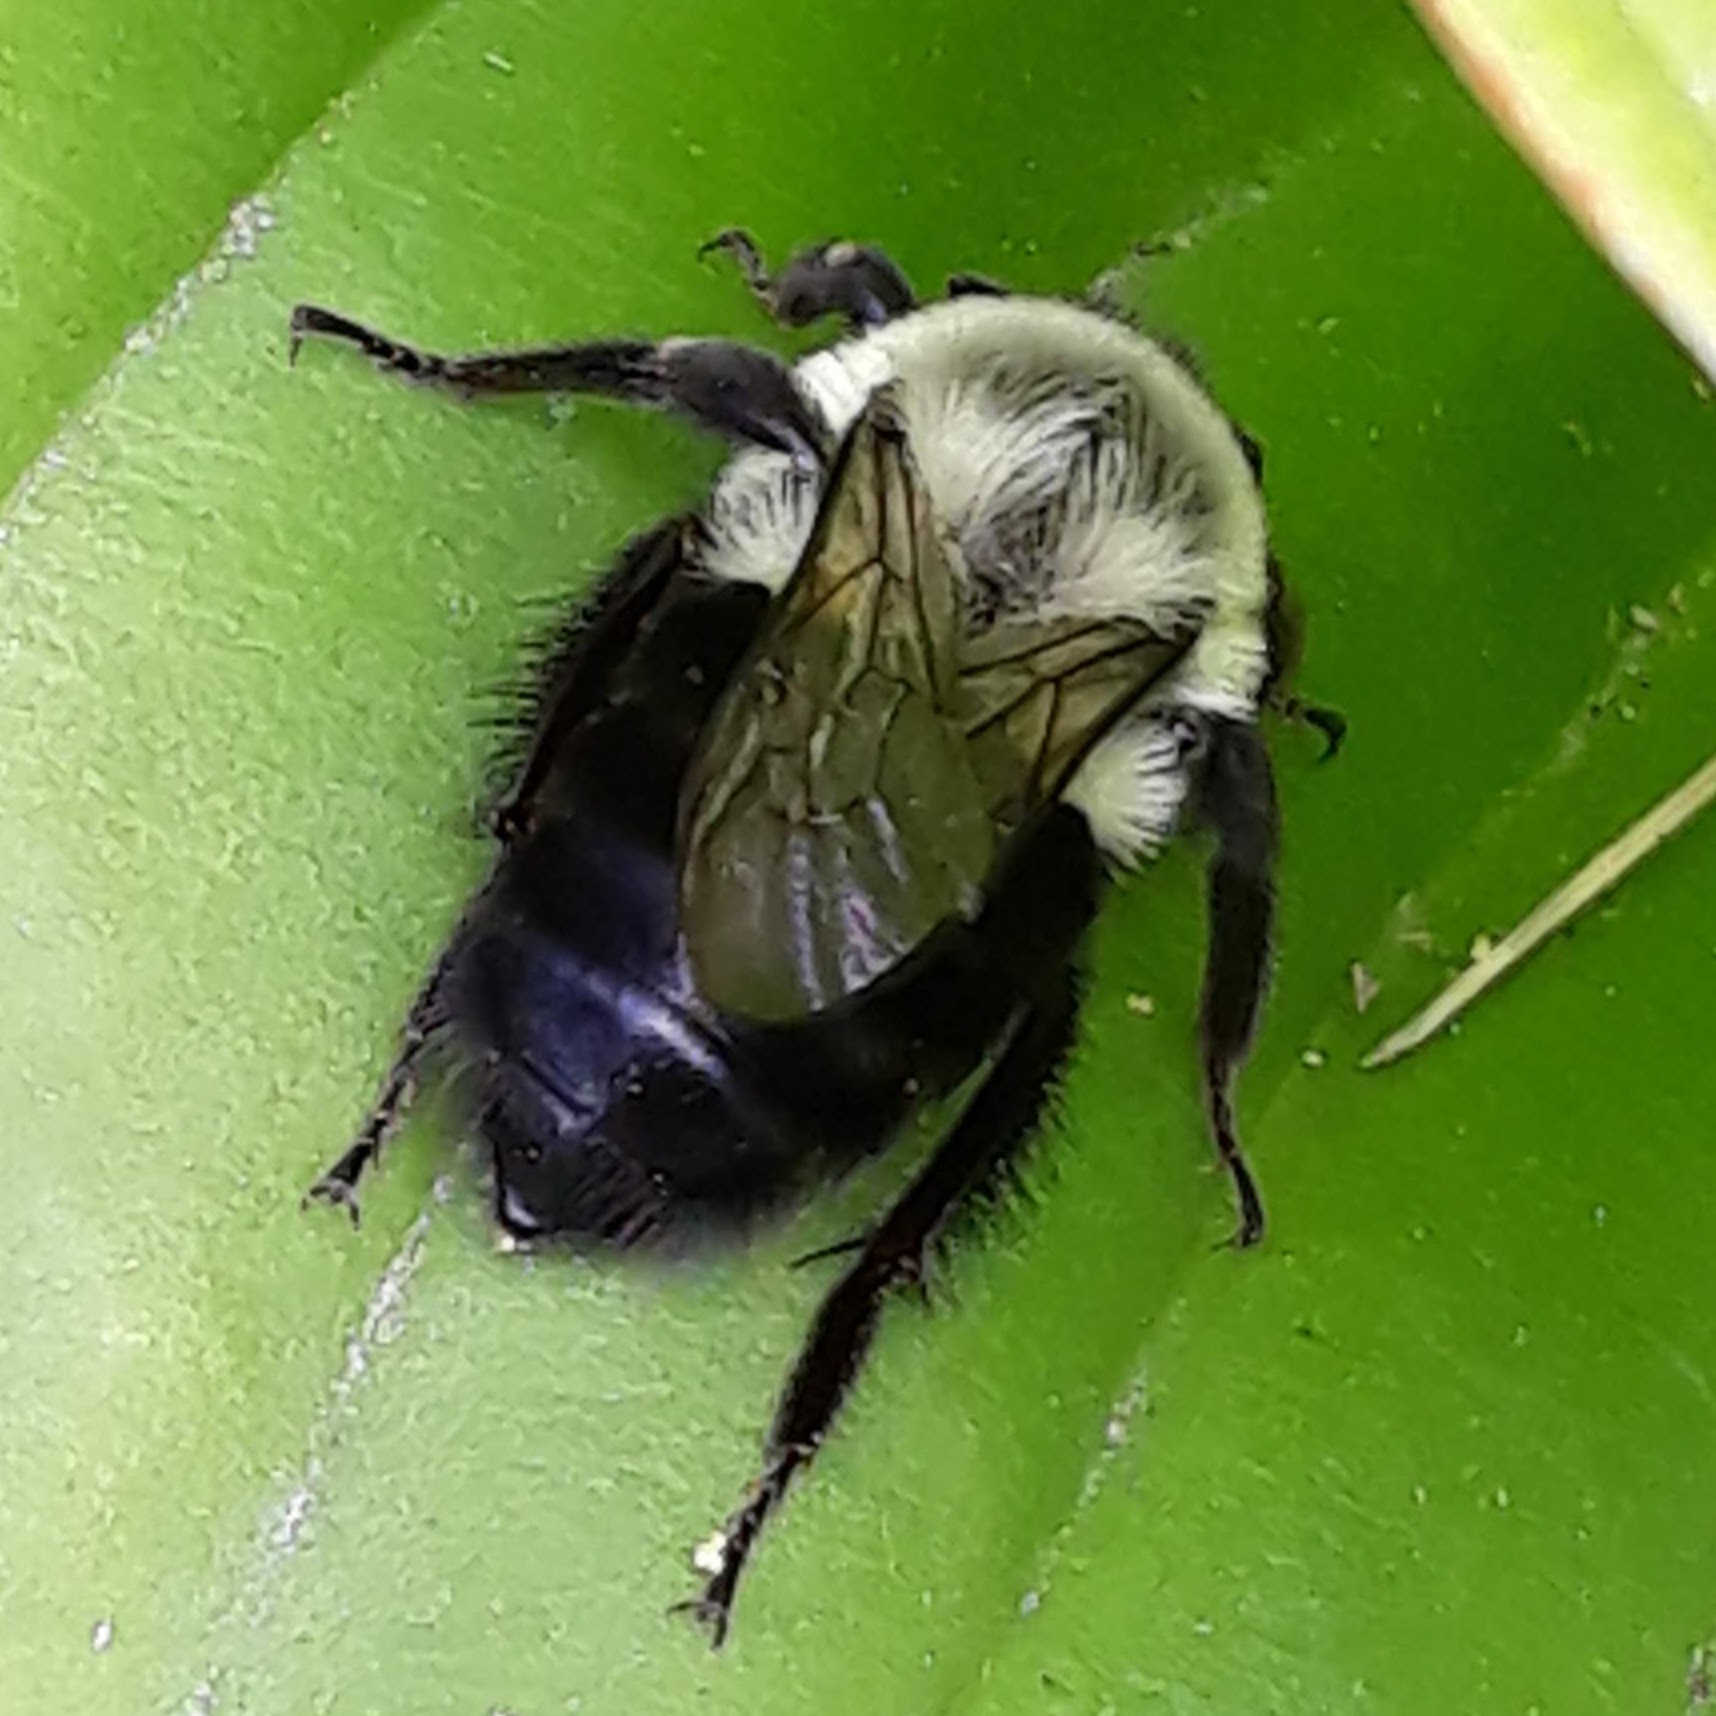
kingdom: Animalia
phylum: Arthropoda
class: Insecta
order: Hymenoptera
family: Apidae
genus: Bombus
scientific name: Bombus impatiens
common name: Common eastern bumble bee
